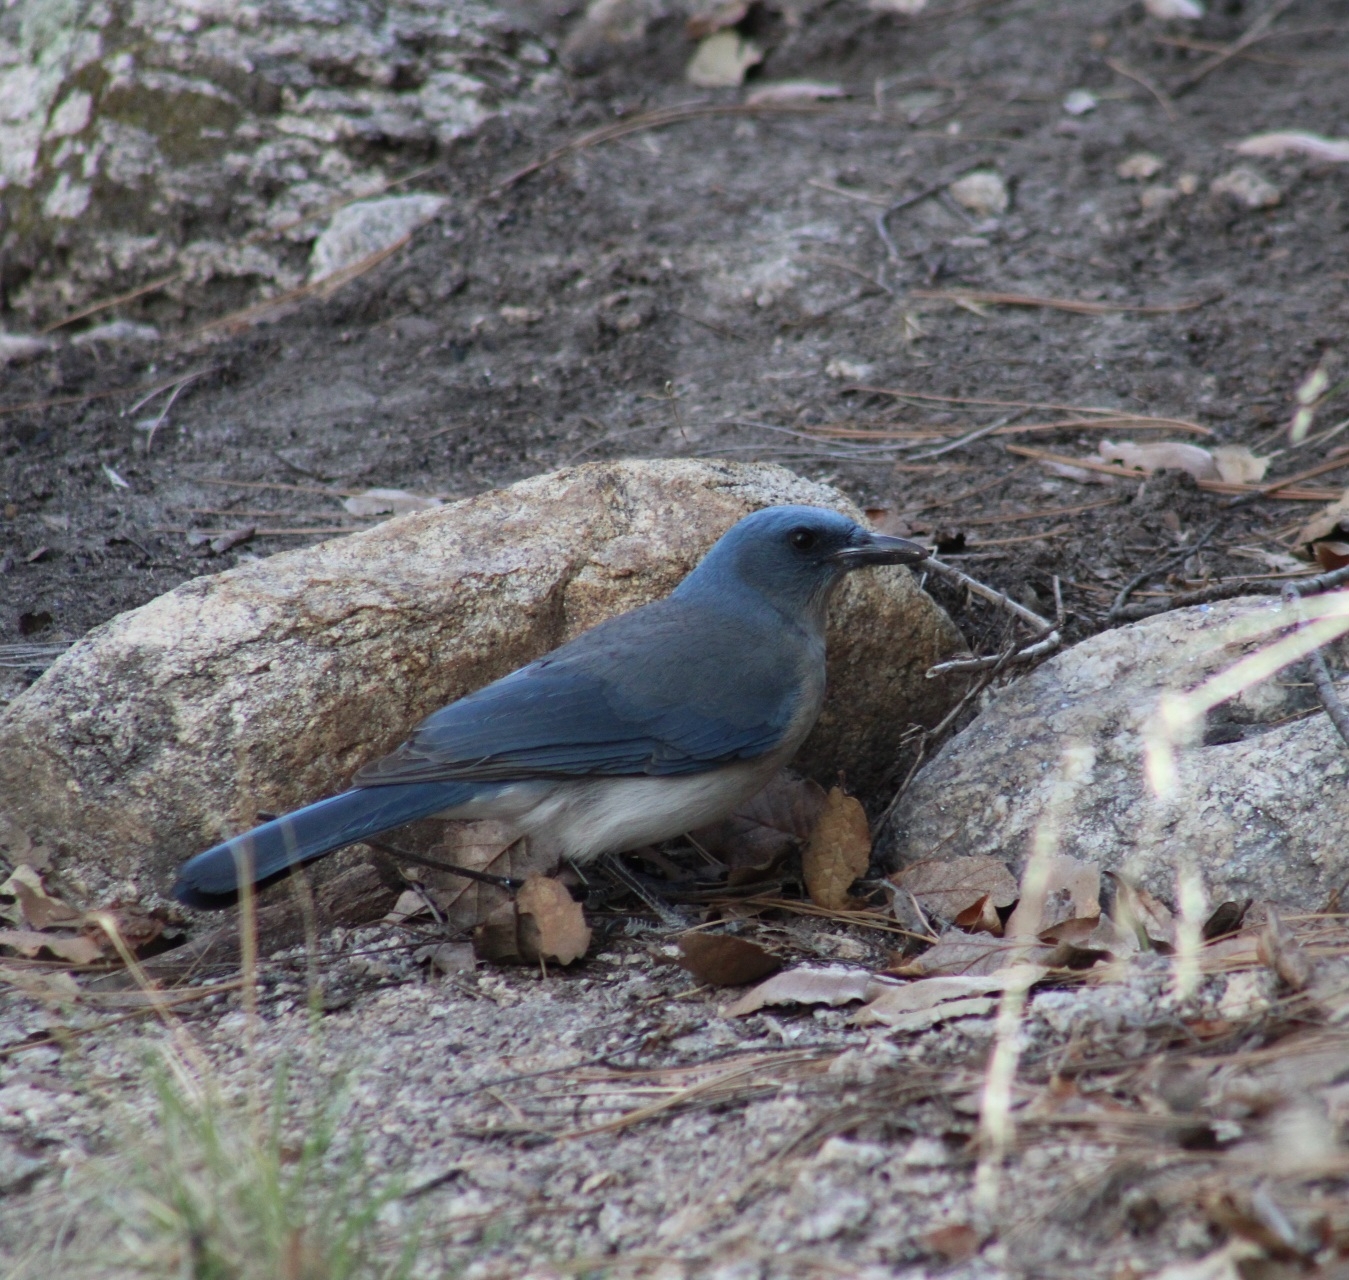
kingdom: Animalia
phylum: Chordata
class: Aves
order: Passeriformes
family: Corvidae
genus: Aphelocoma
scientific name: Aphelocoma wollweberi
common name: Mexican jay
